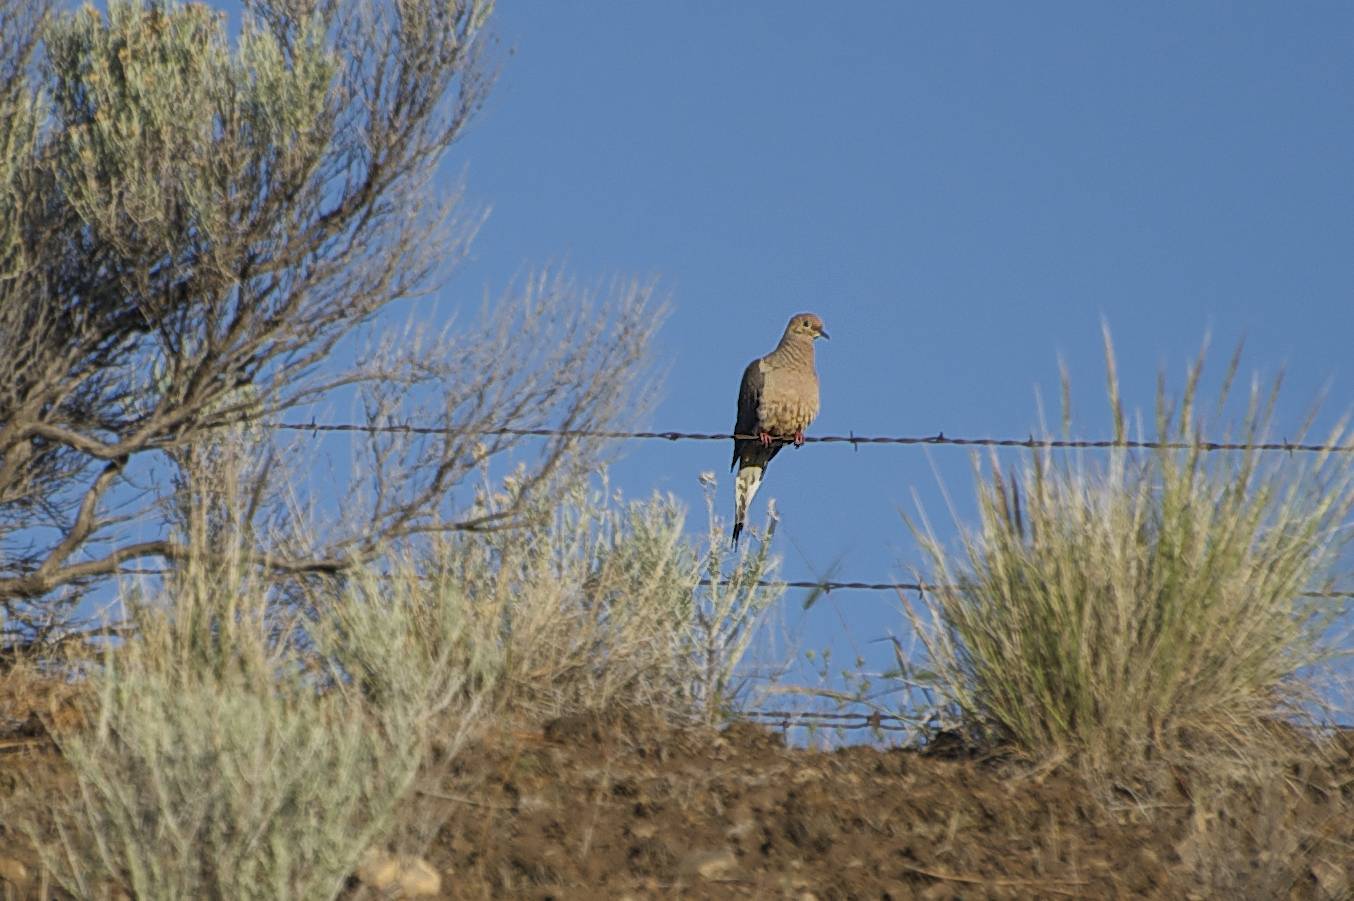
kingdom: Animalia
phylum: Chordata
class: Aves
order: Columbiformes
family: Columbidae
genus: Zenaida
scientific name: Zenaida macroura
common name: Mourning dove
